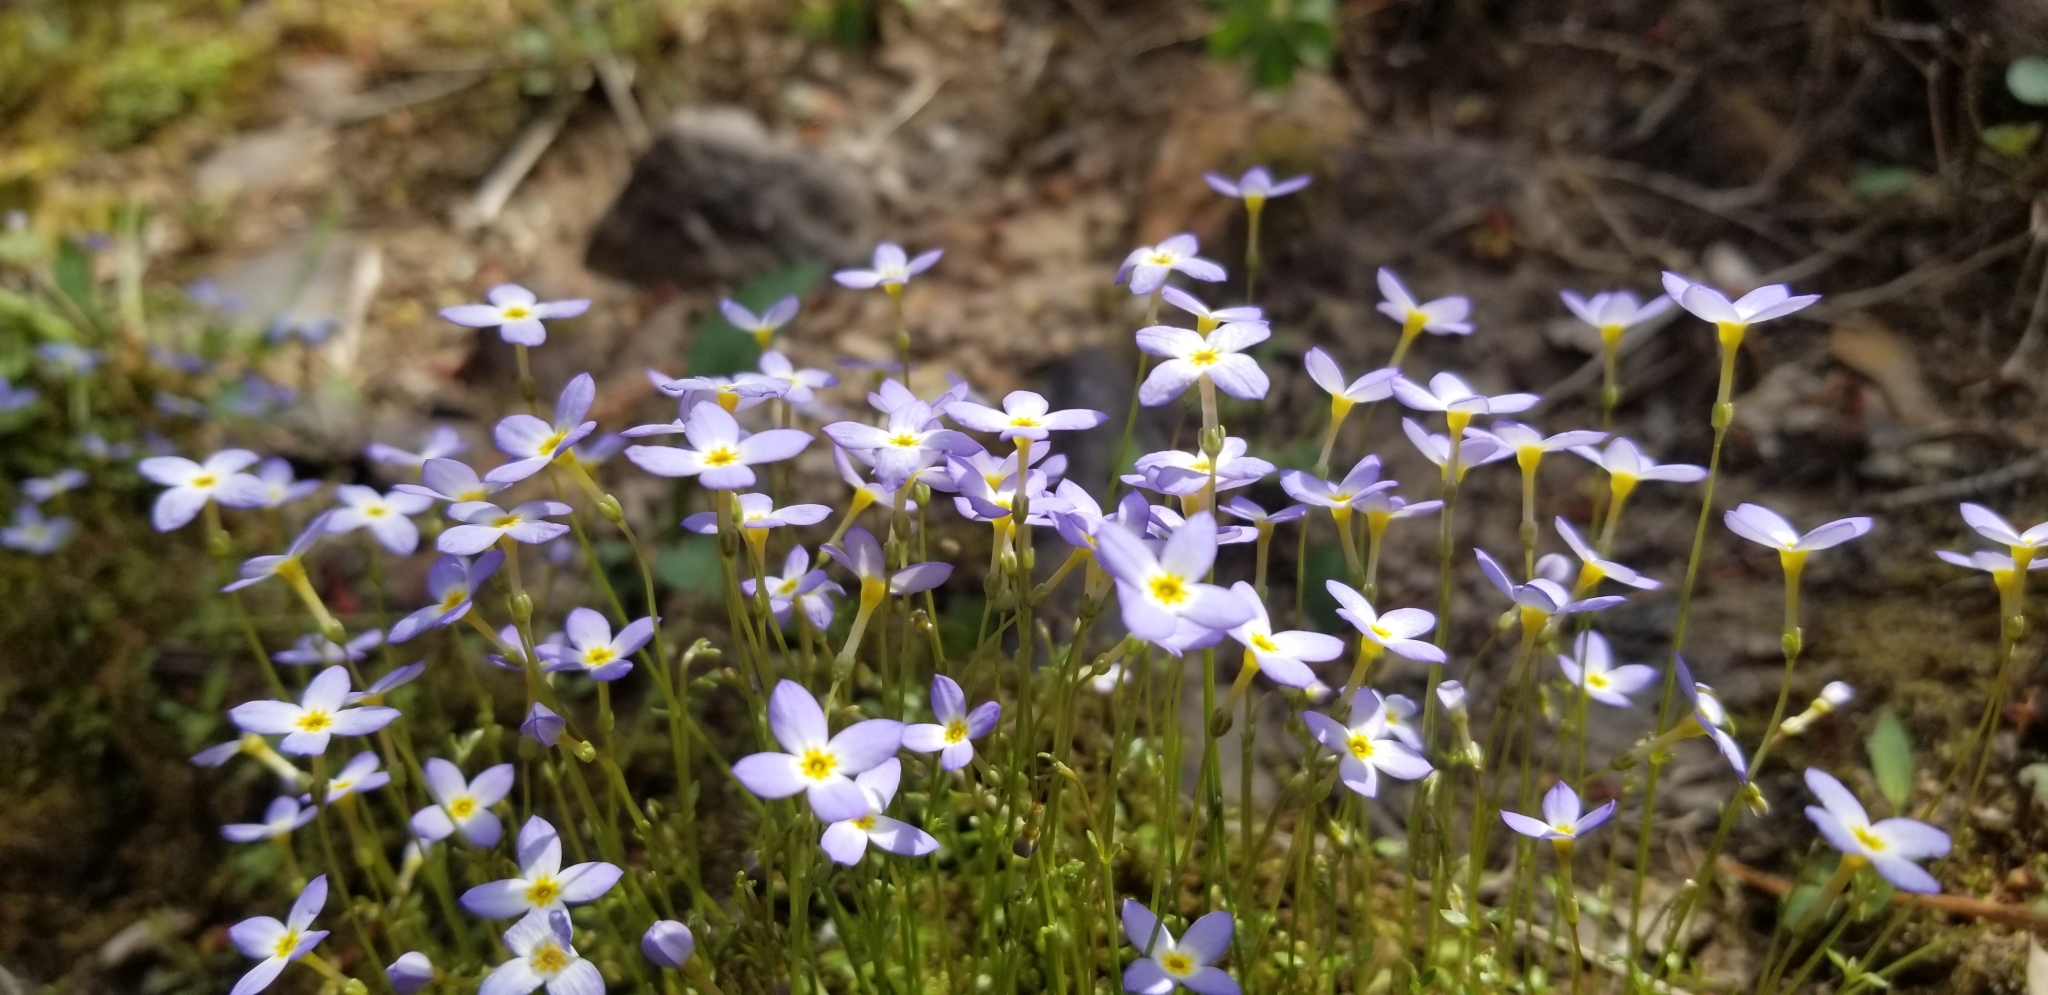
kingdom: Plantae
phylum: Tracheophyta
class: Magnoliopsida
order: Gentianales
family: Rubiaceae
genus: Houstonia
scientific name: Houstonia caerulea
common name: Bluets
